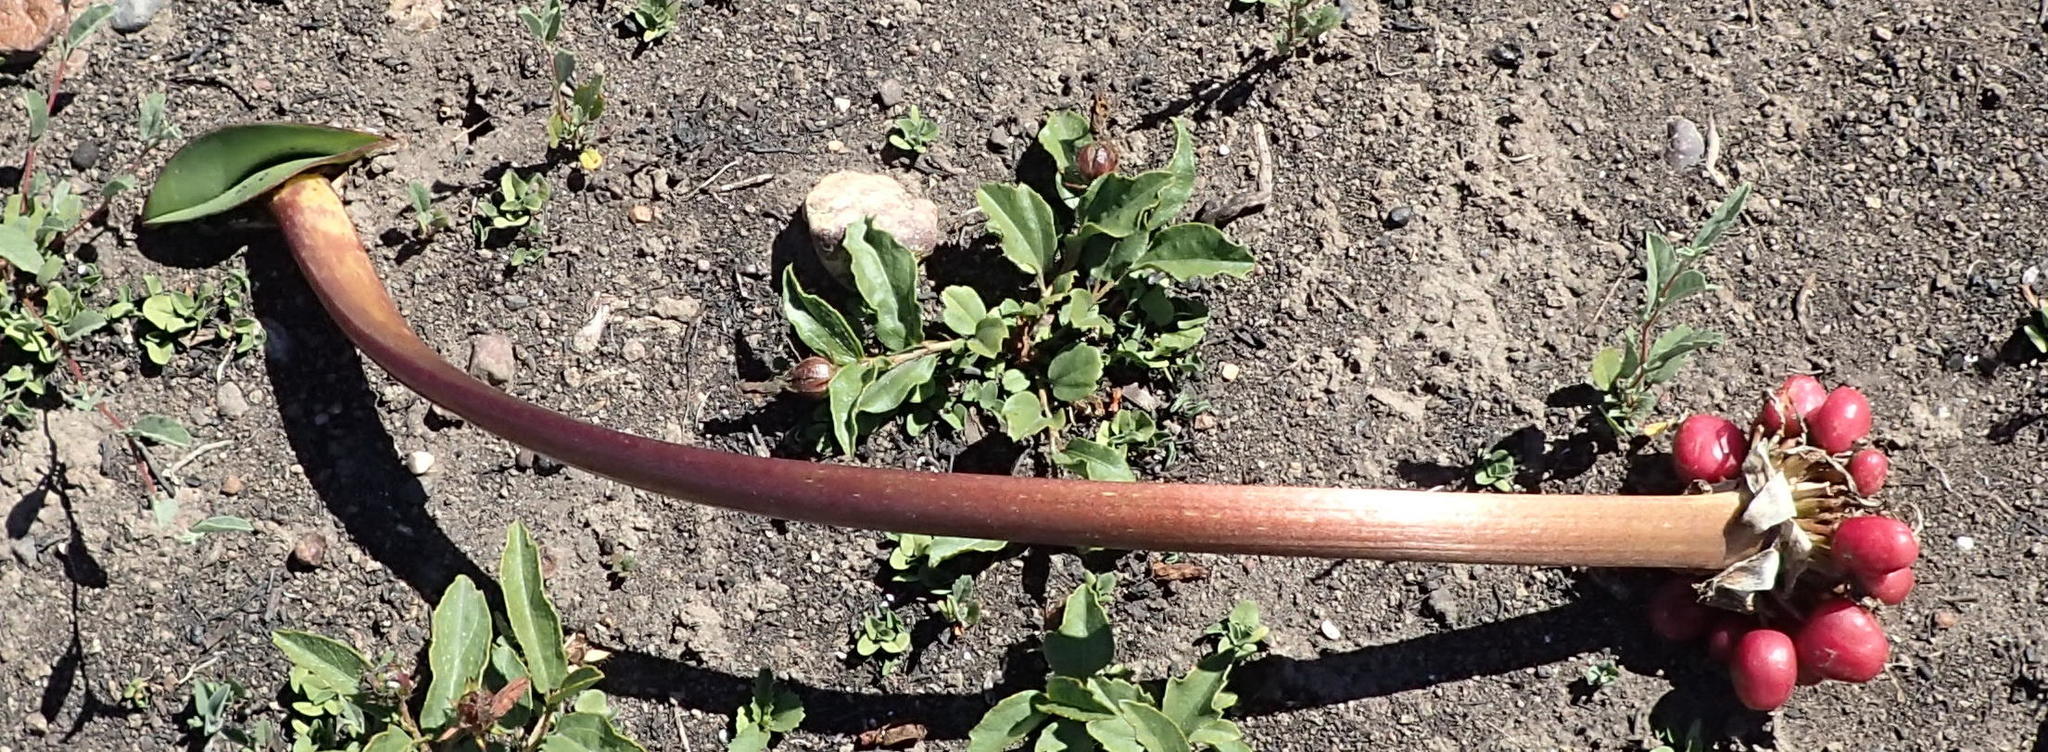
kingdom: Plantae
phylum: Tracheophyta
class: Liliopsida
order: Asparagales
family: Amaryllidaceae
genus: Haemanthus
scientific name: Haemanthus sanguineus
